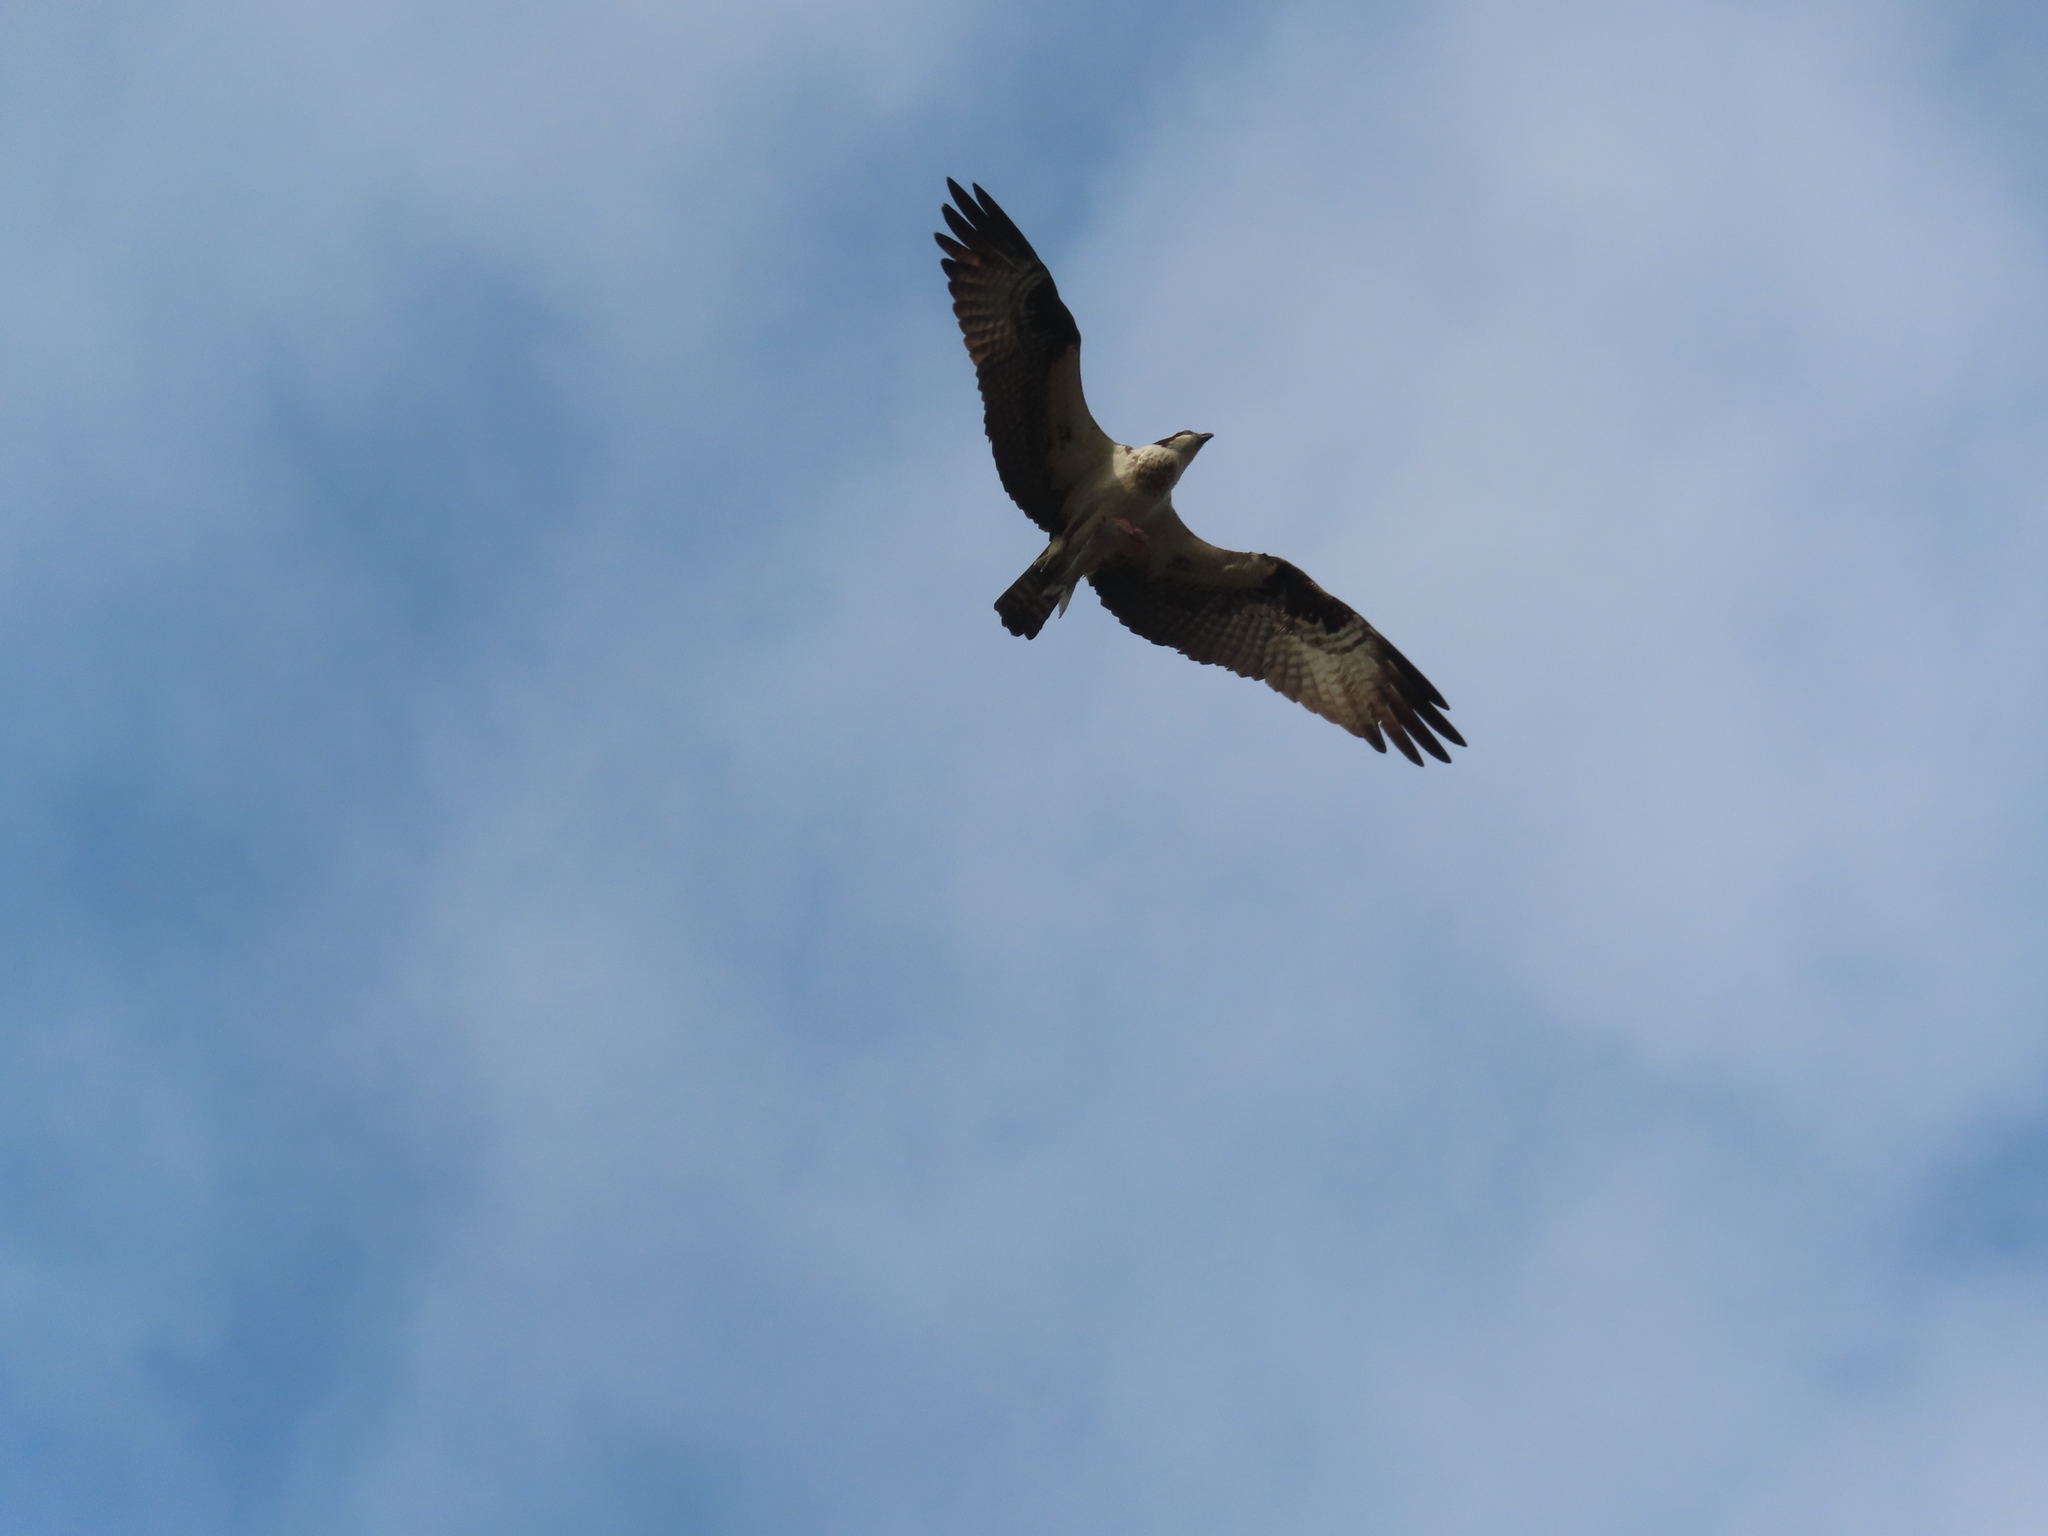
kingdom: Animalia
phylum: Chordata
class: Aves
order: Accipitriformes
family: Pandionidae
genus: Pandion
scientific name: Pandion haliaetus
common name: Osprey
